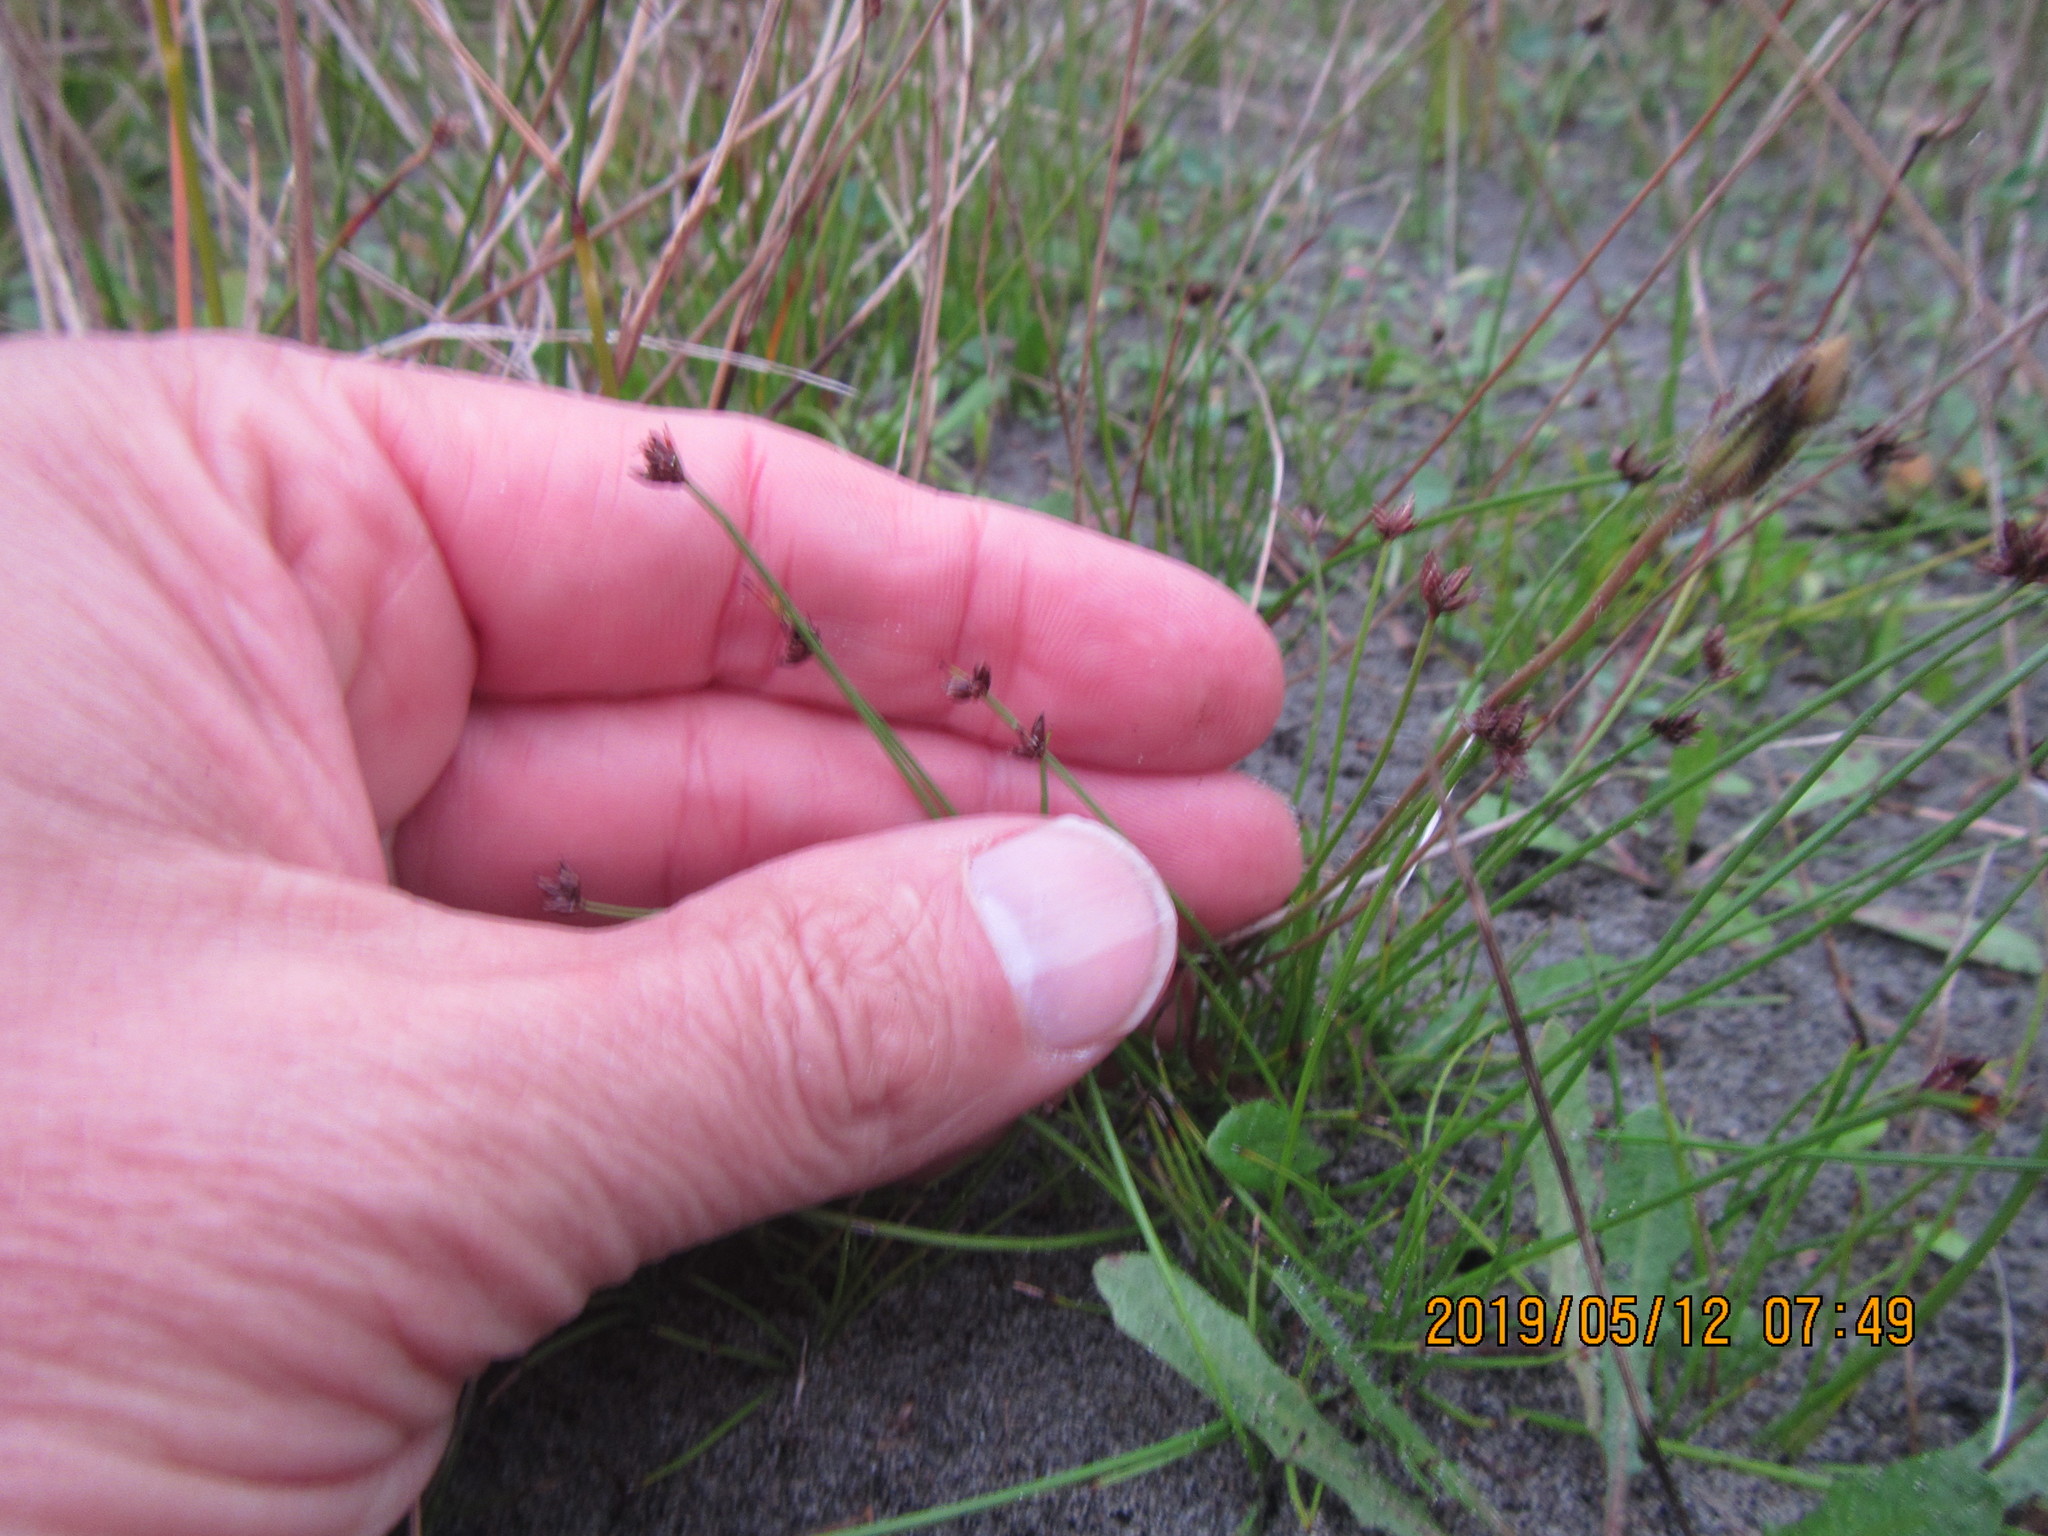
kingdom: Plantae
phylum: Tracheophyta
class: Liliopsida
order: Poales
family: Cyperaceae
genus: Schoenus
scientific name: Schoenus nitens
